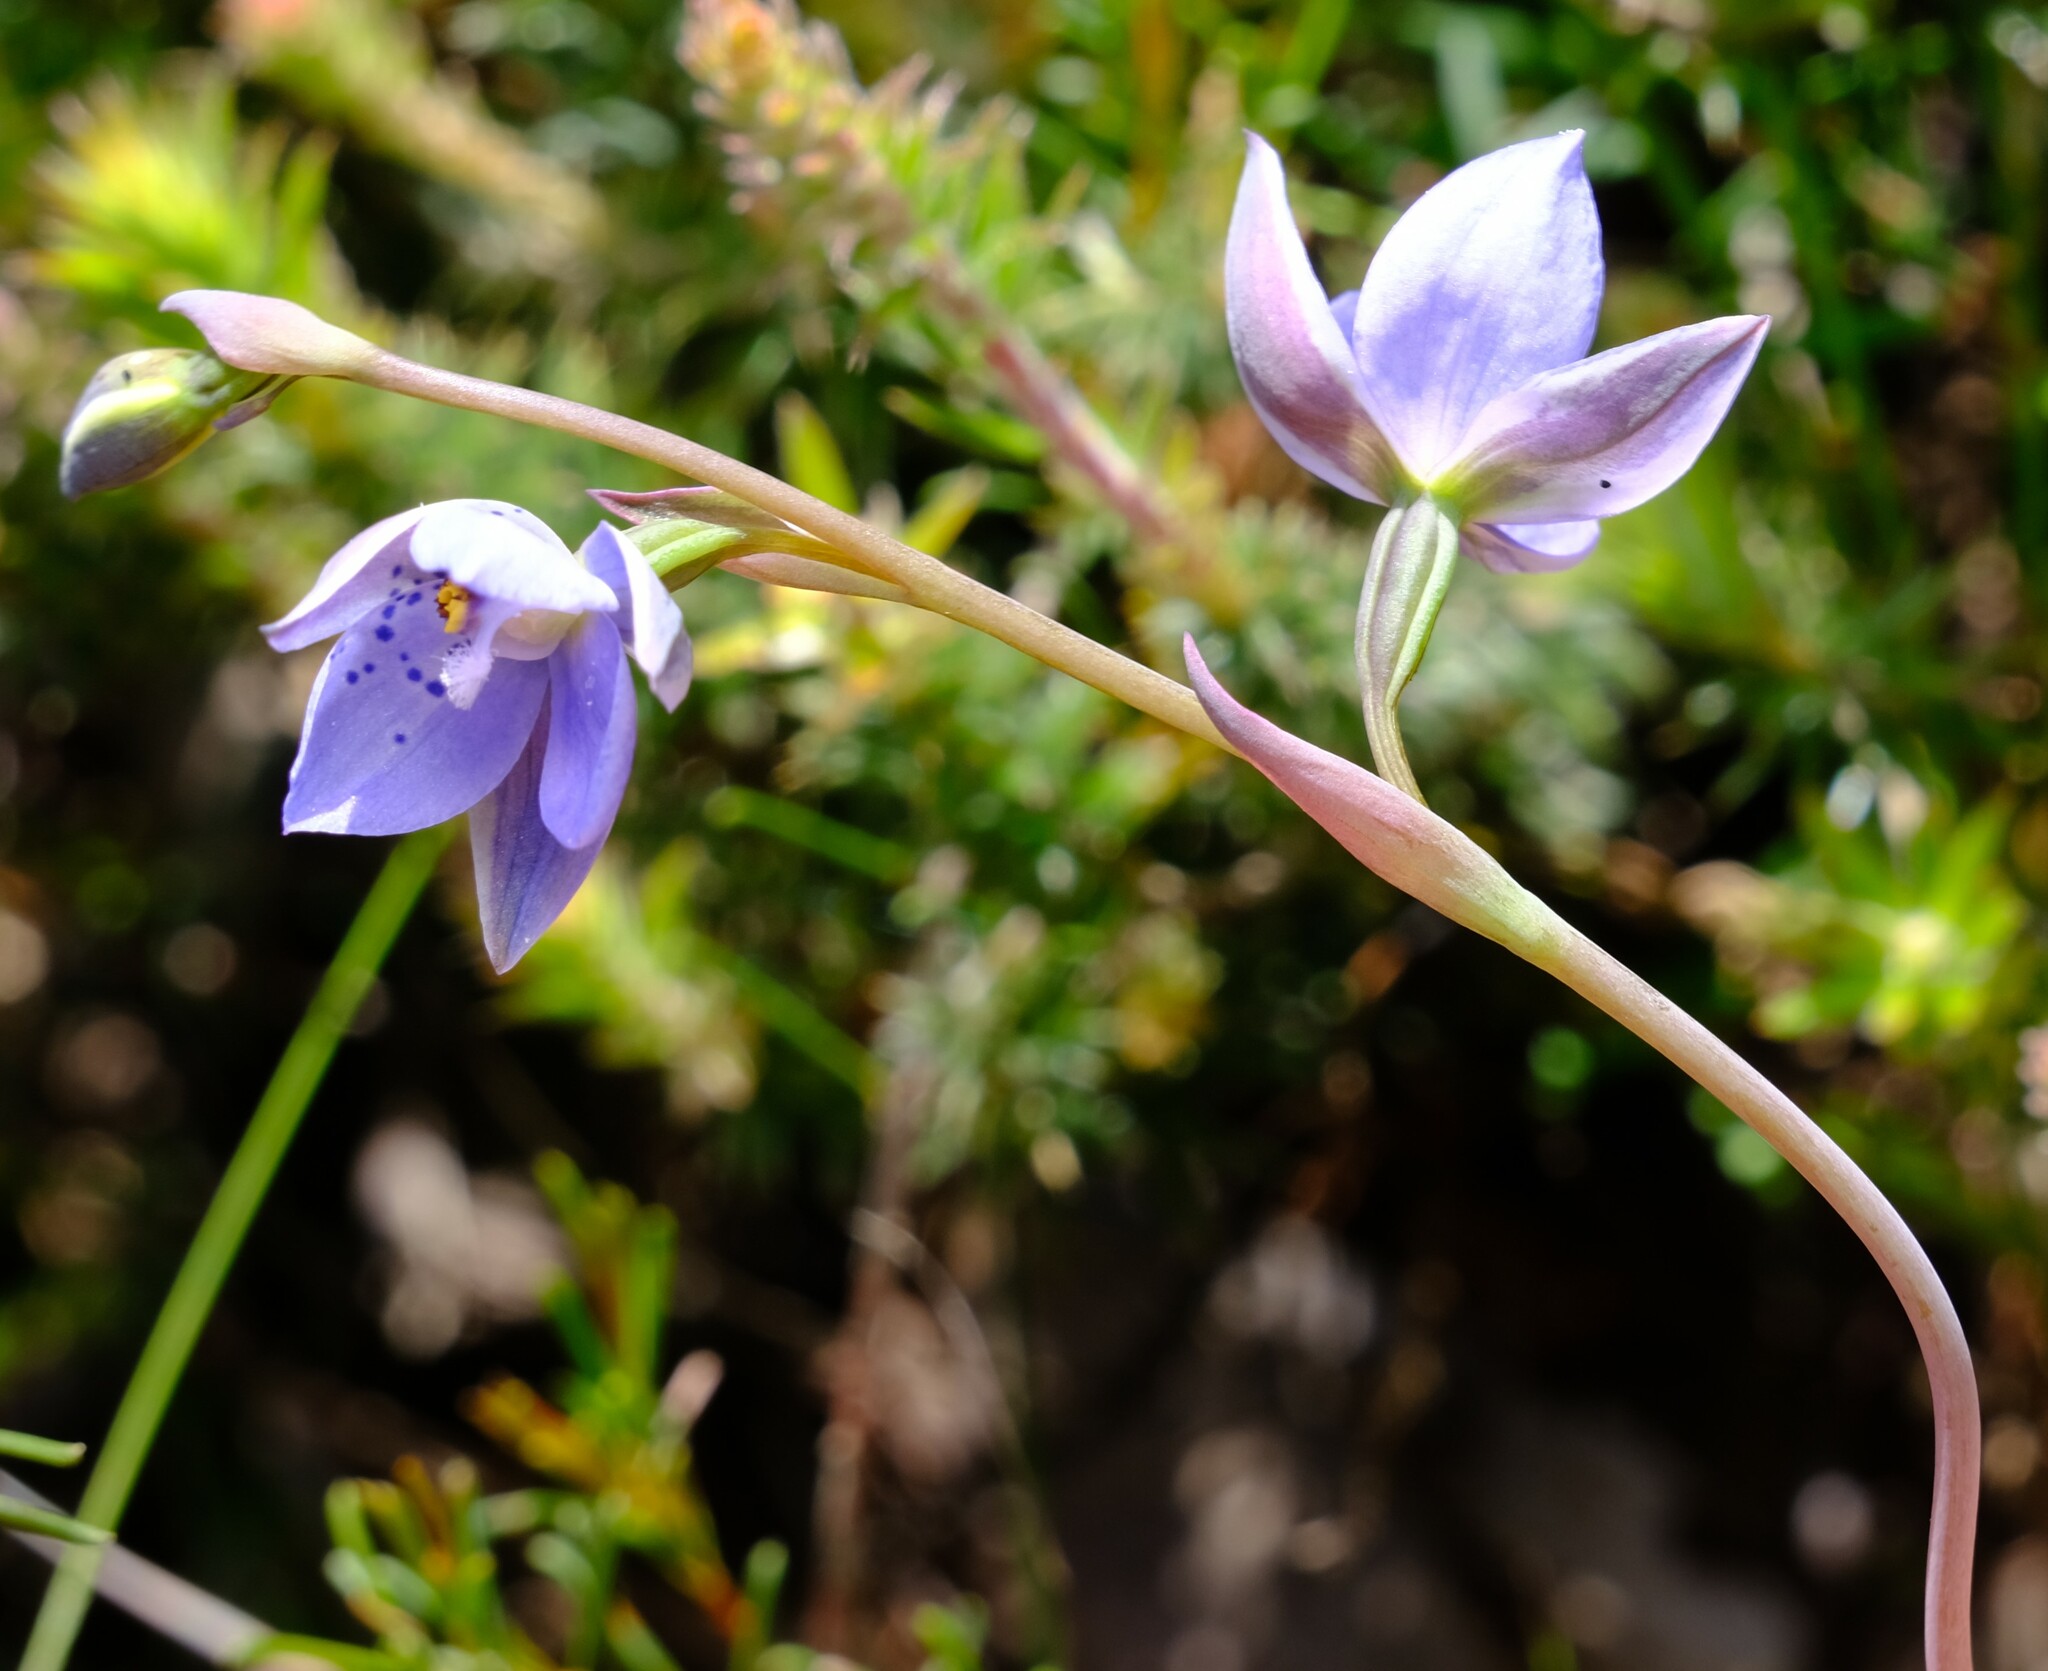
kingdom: Plantae
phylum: Tracheophyta
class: Liliopsida
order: Asparagales
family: Orchidaceae
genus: Thelymitra
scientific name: Thelymitra ixioides
